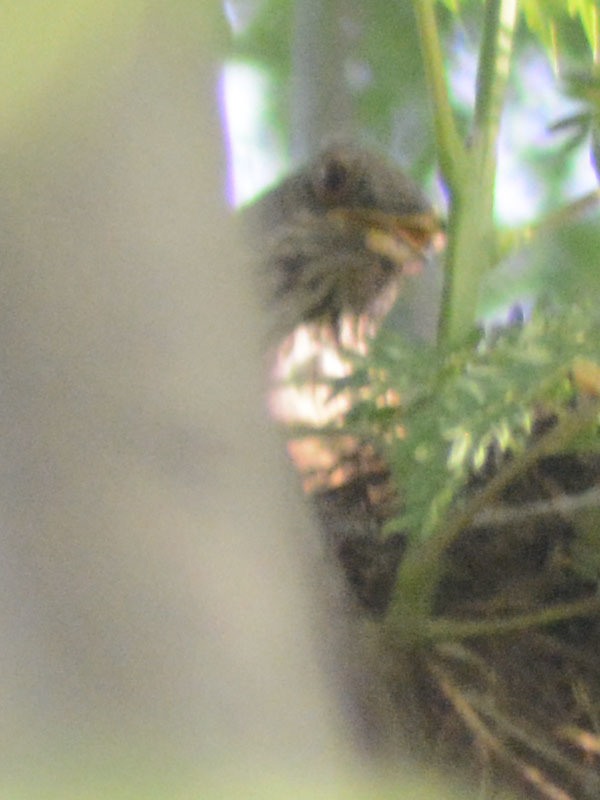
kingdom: Animalia
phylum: Chordata
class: Aves
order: Passeriformes
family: Turdidae
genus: Turdus
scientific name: Turdus rufopalliatus
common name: Rufous-backed robin
